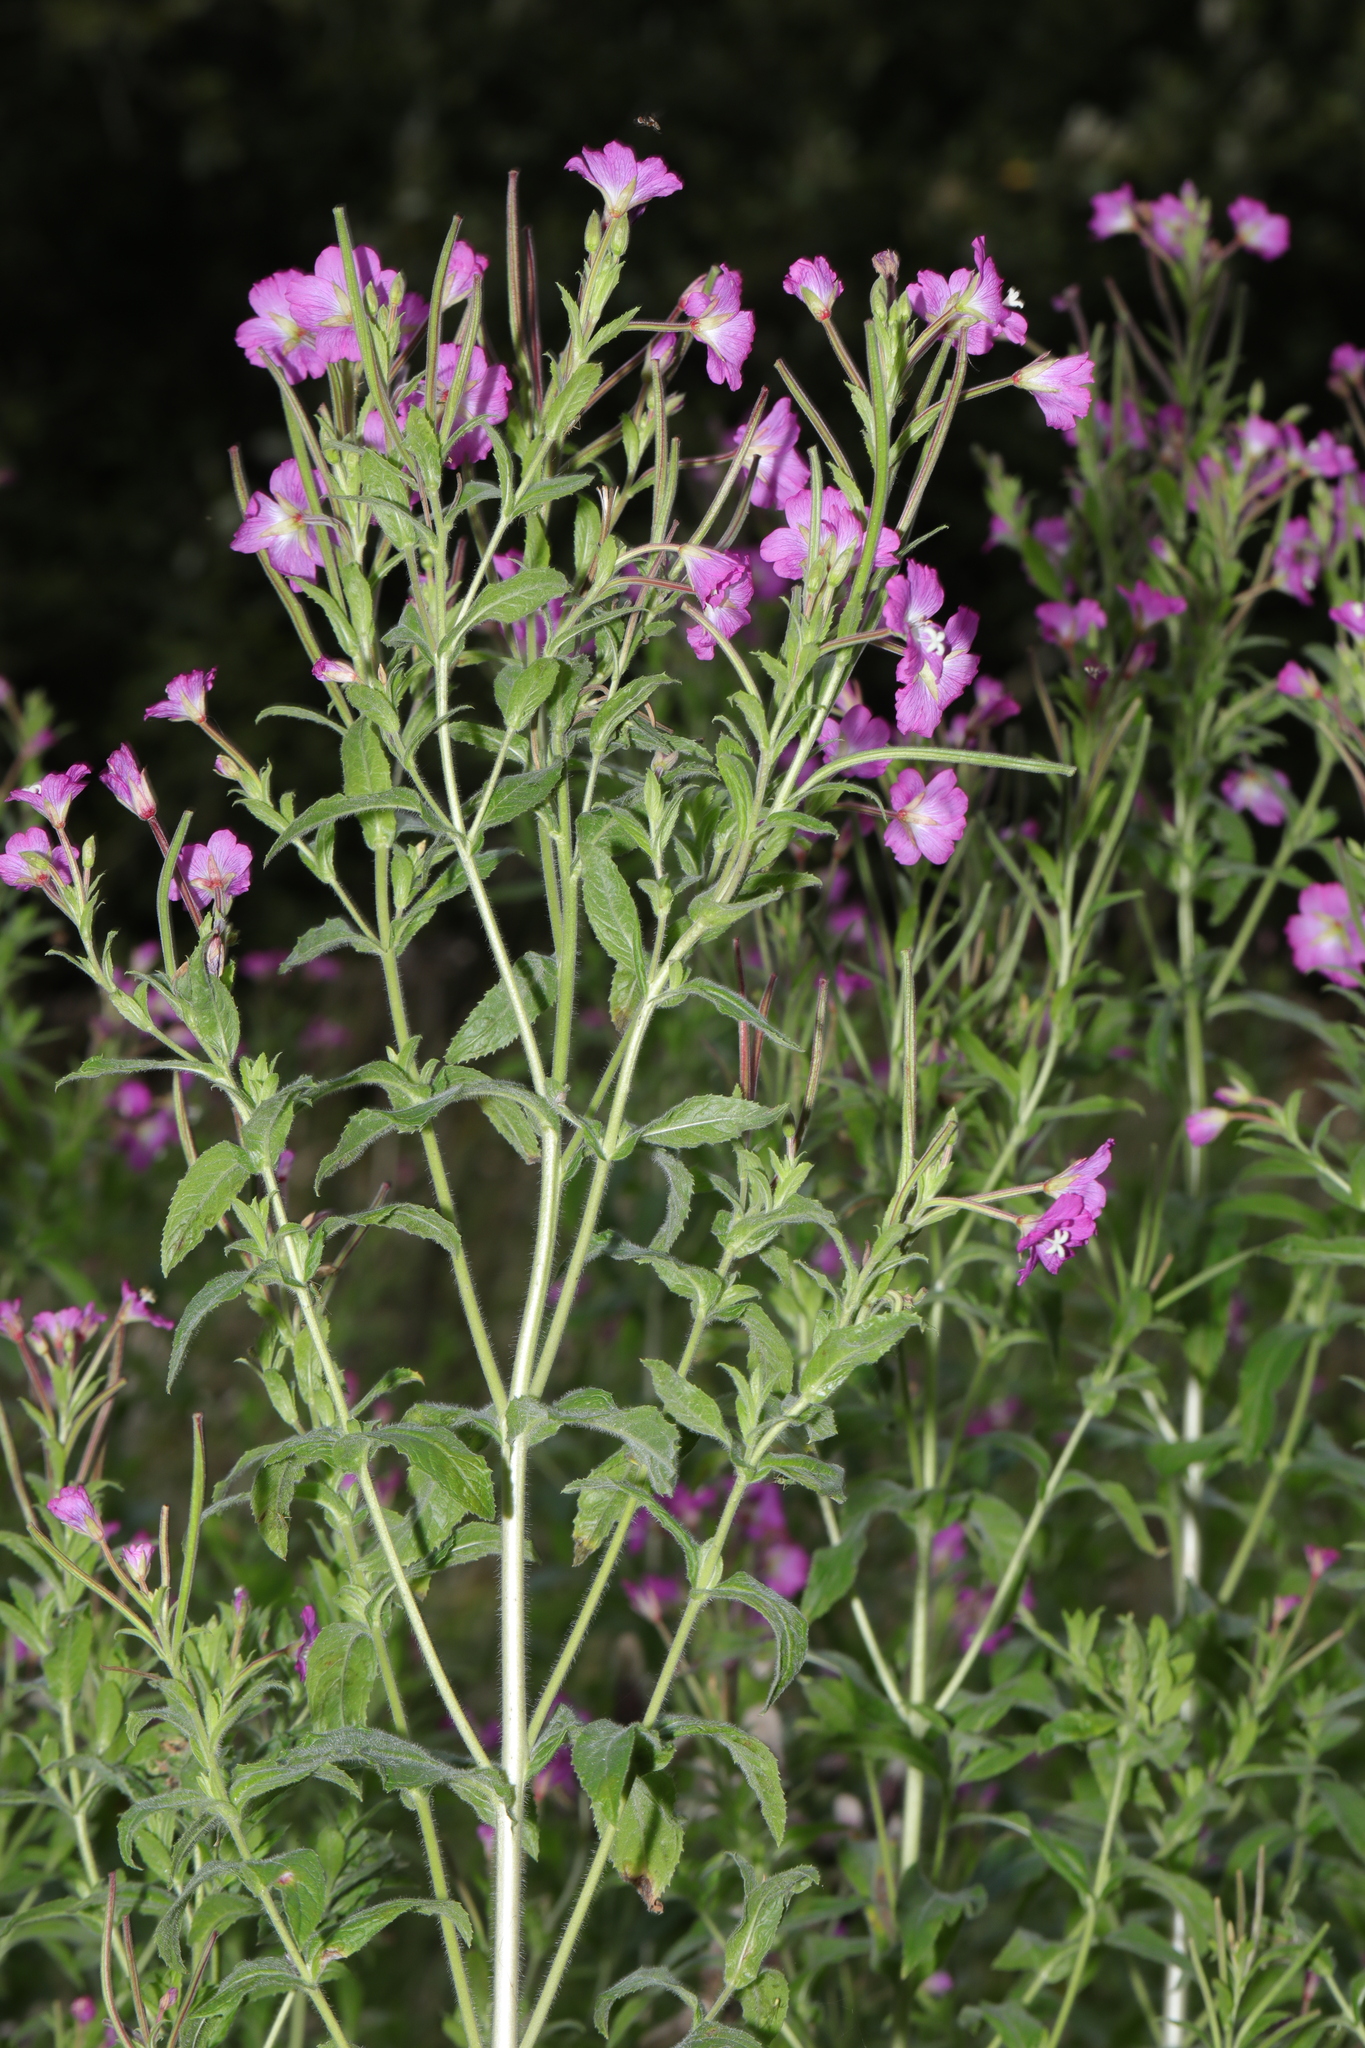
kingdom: Plantae
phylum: Tracheophyta
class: Magnoliopsida
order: Myrtales
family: Onagraceae
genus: Epilobium
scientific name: Epilobium hirsutum
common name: Great willowherb
